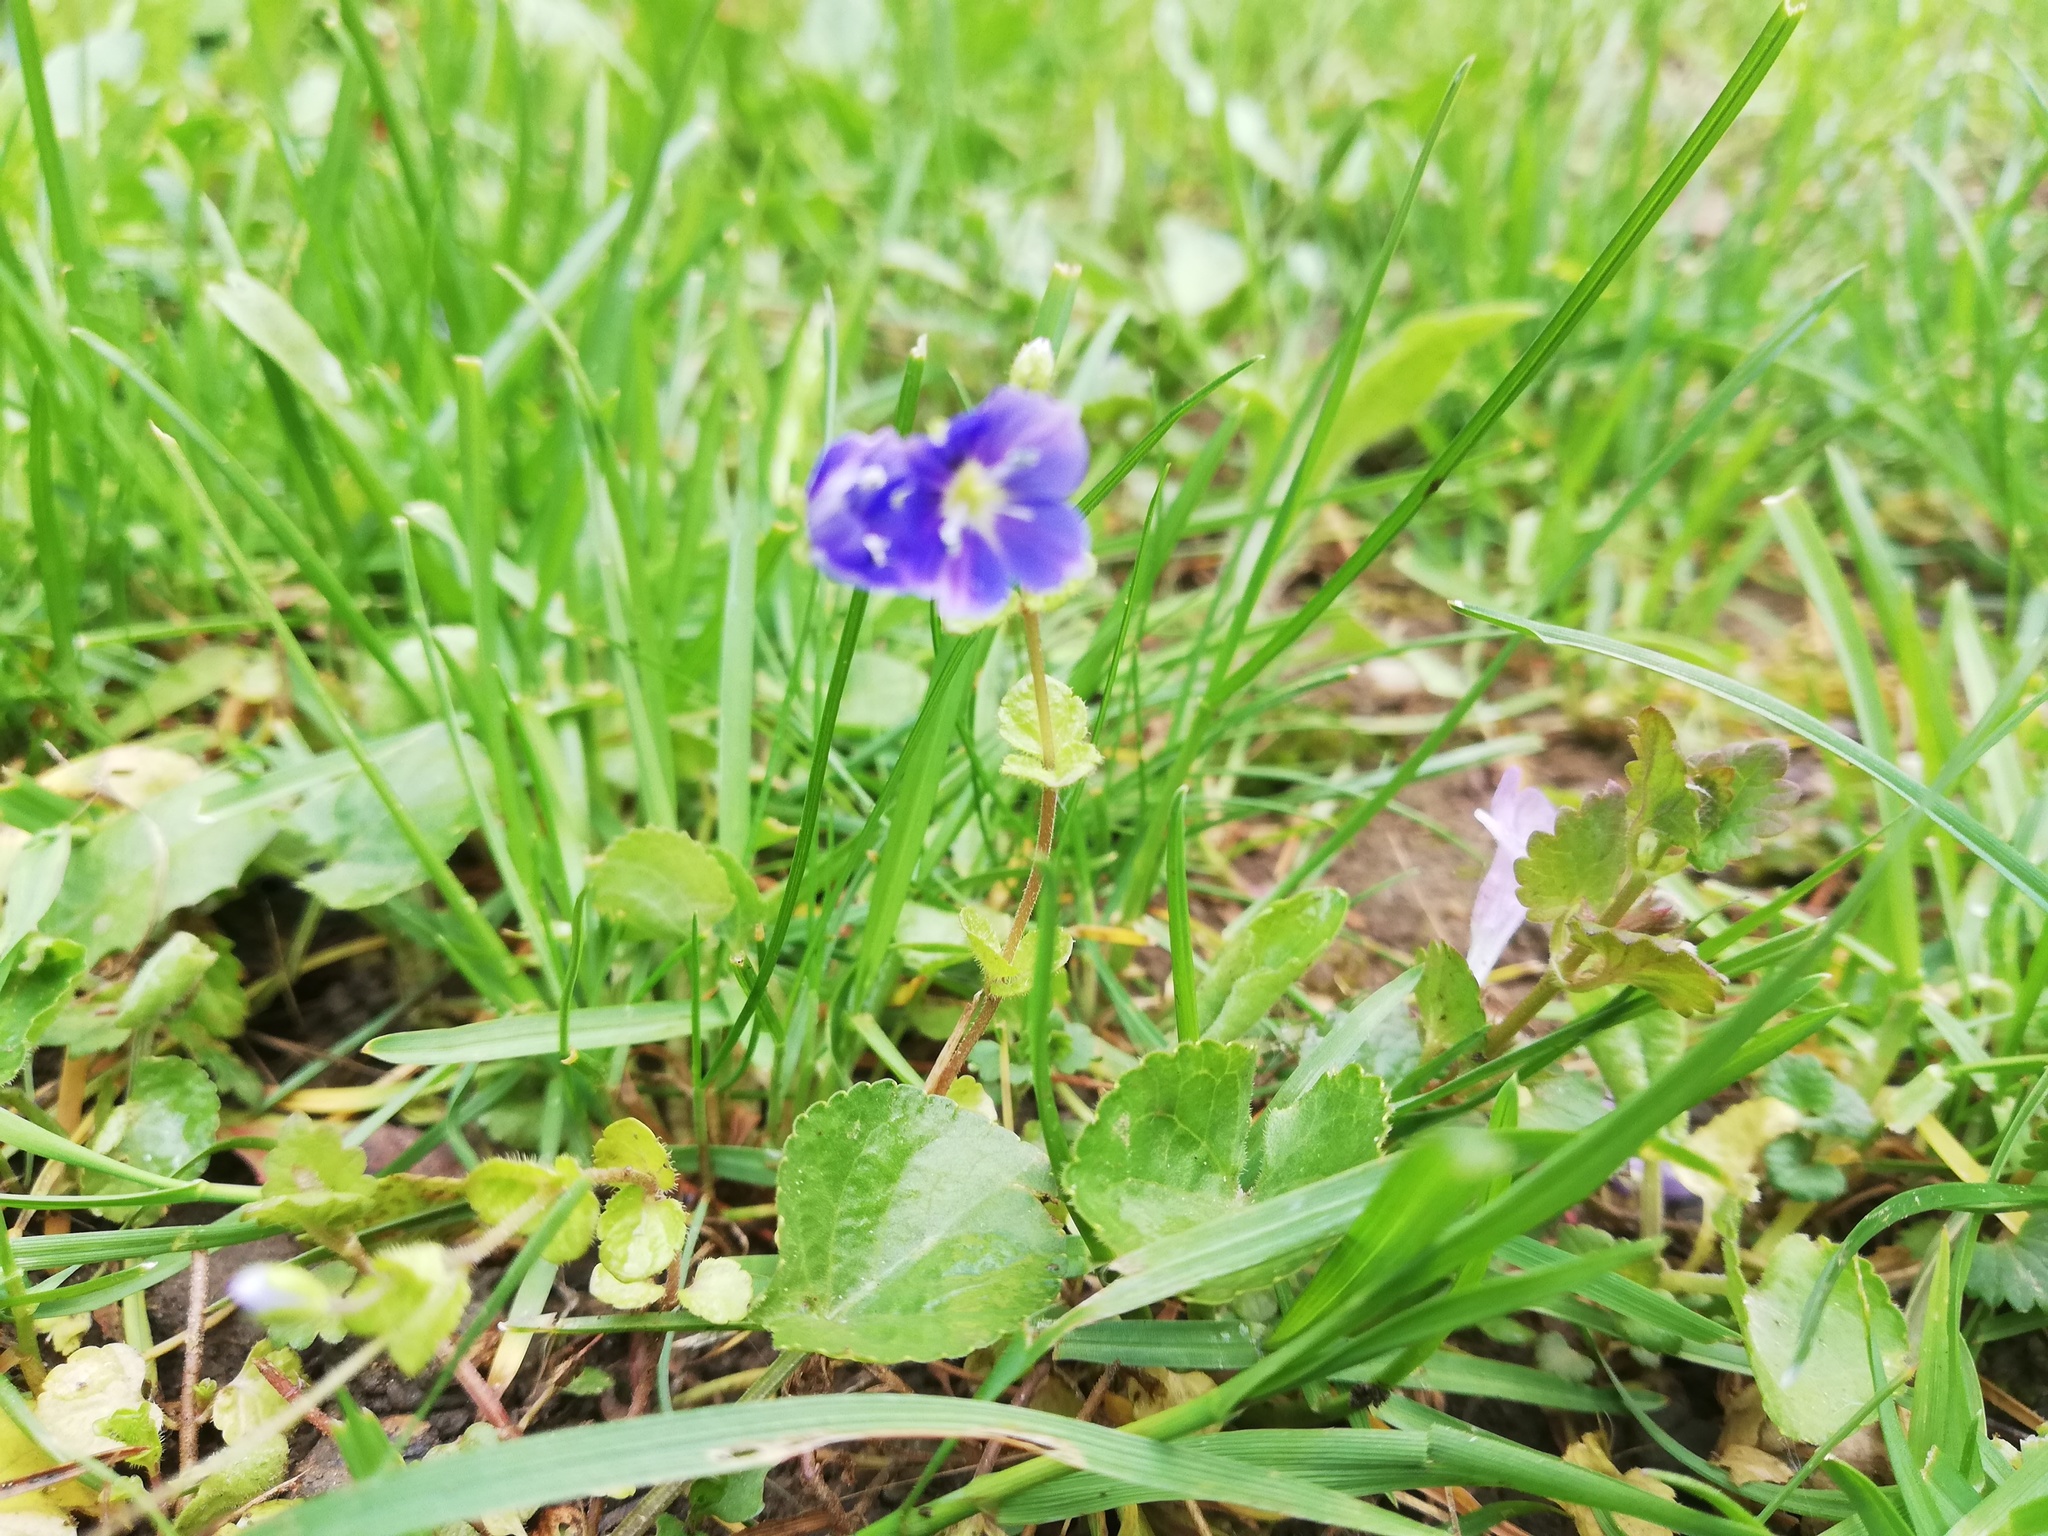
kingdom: Plantae
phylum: Tracheophyta
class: Magnoliopsida
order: Lamiales
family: Plantaginaceae
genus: Veronica
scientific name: Veronica chamaedrys
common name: Germander speedwell
